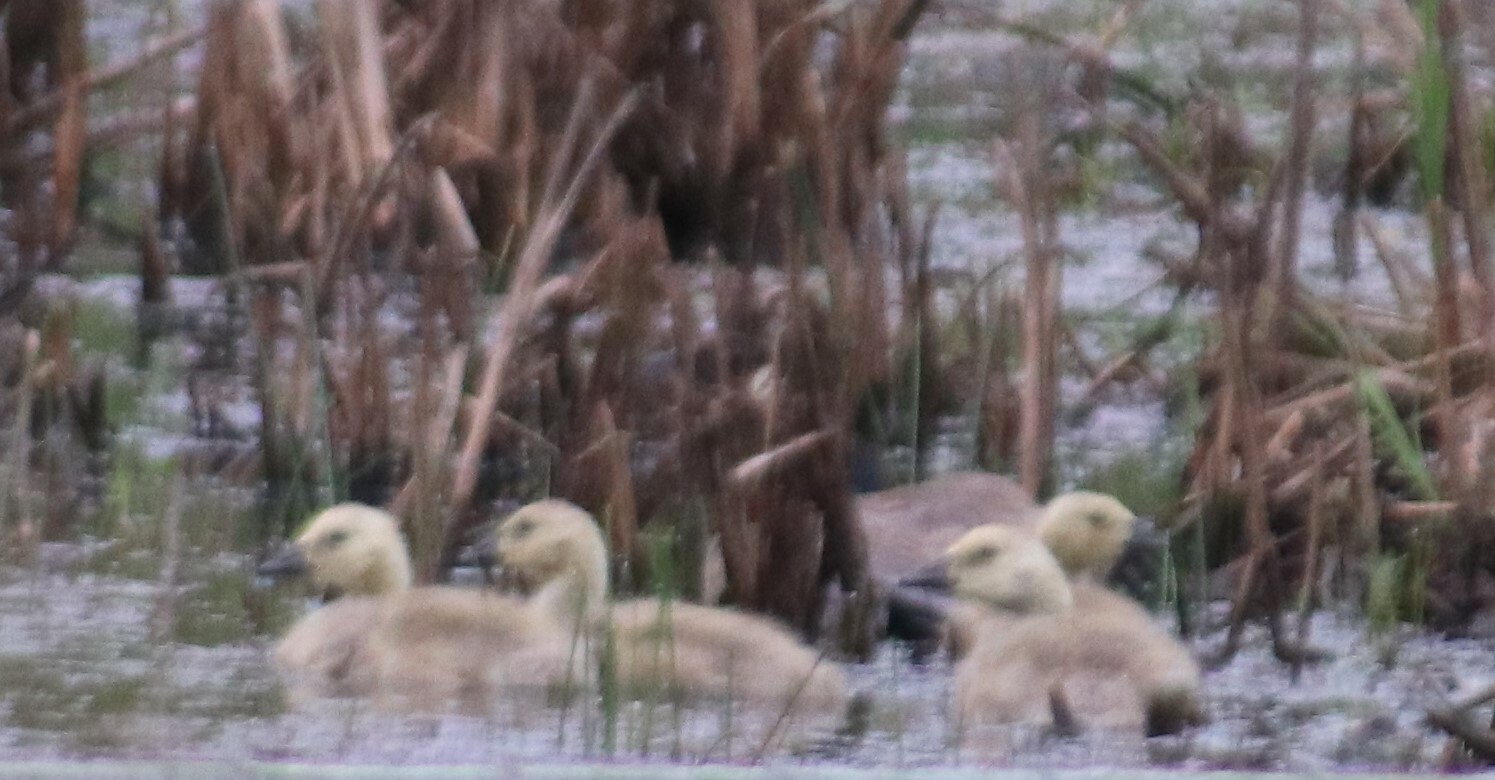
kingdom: Animalia
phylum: Chordata
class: Aves
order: Anseriformes
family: Anatidae
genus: Branta
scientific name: Branta canadensis
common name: Canada goose
